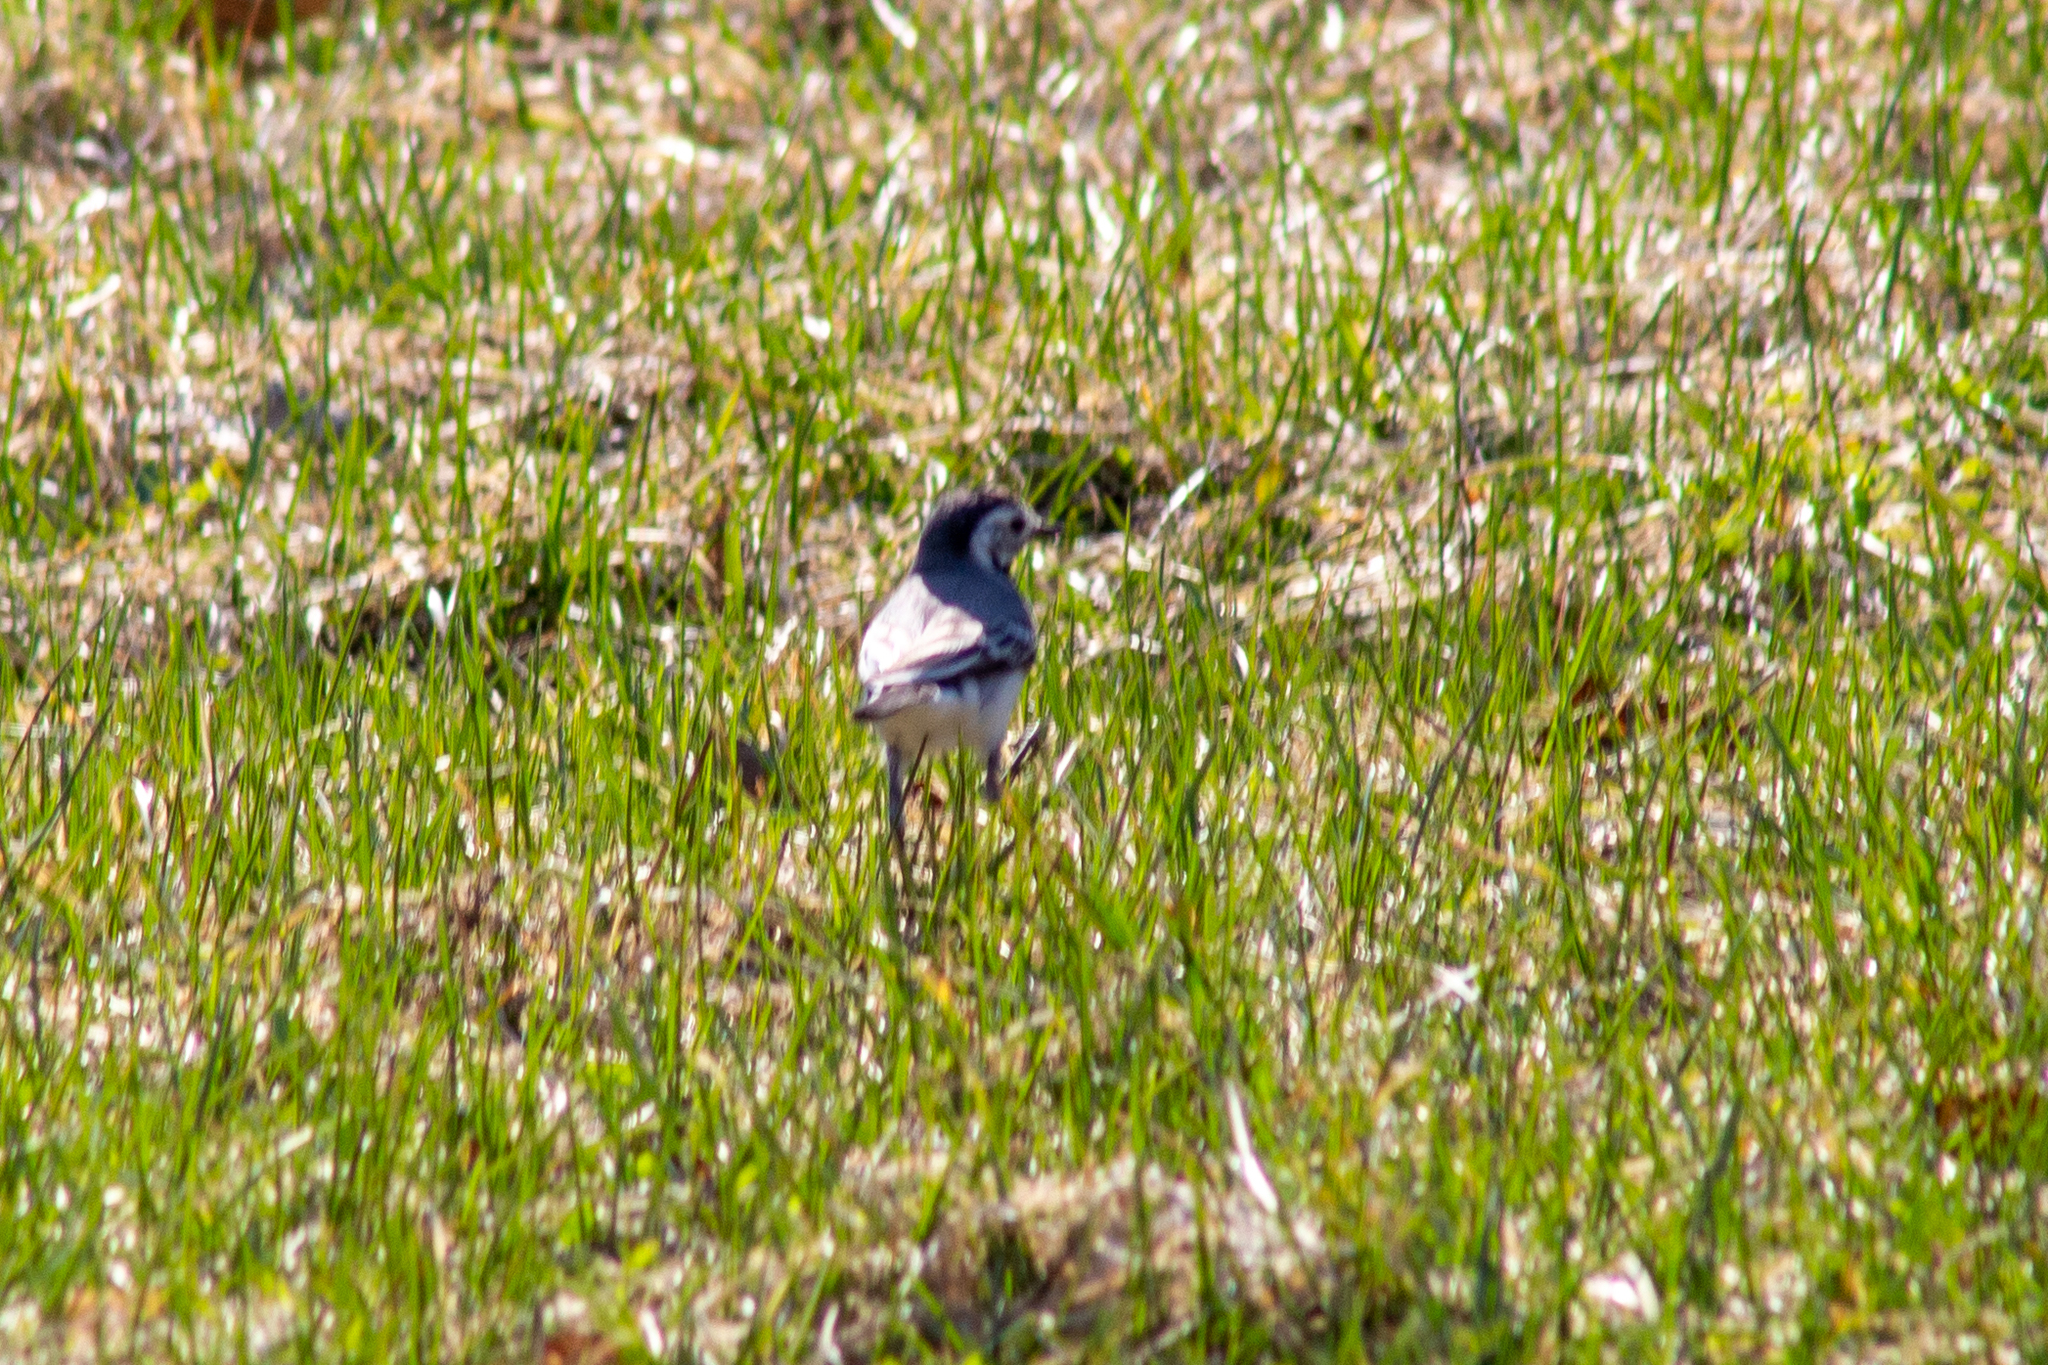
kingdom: Animalia
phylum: Chordata
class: Aves
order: Passeriformes
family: Motacillidae
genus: Motacilla
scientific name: Motacilla alba
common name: White wagtail
